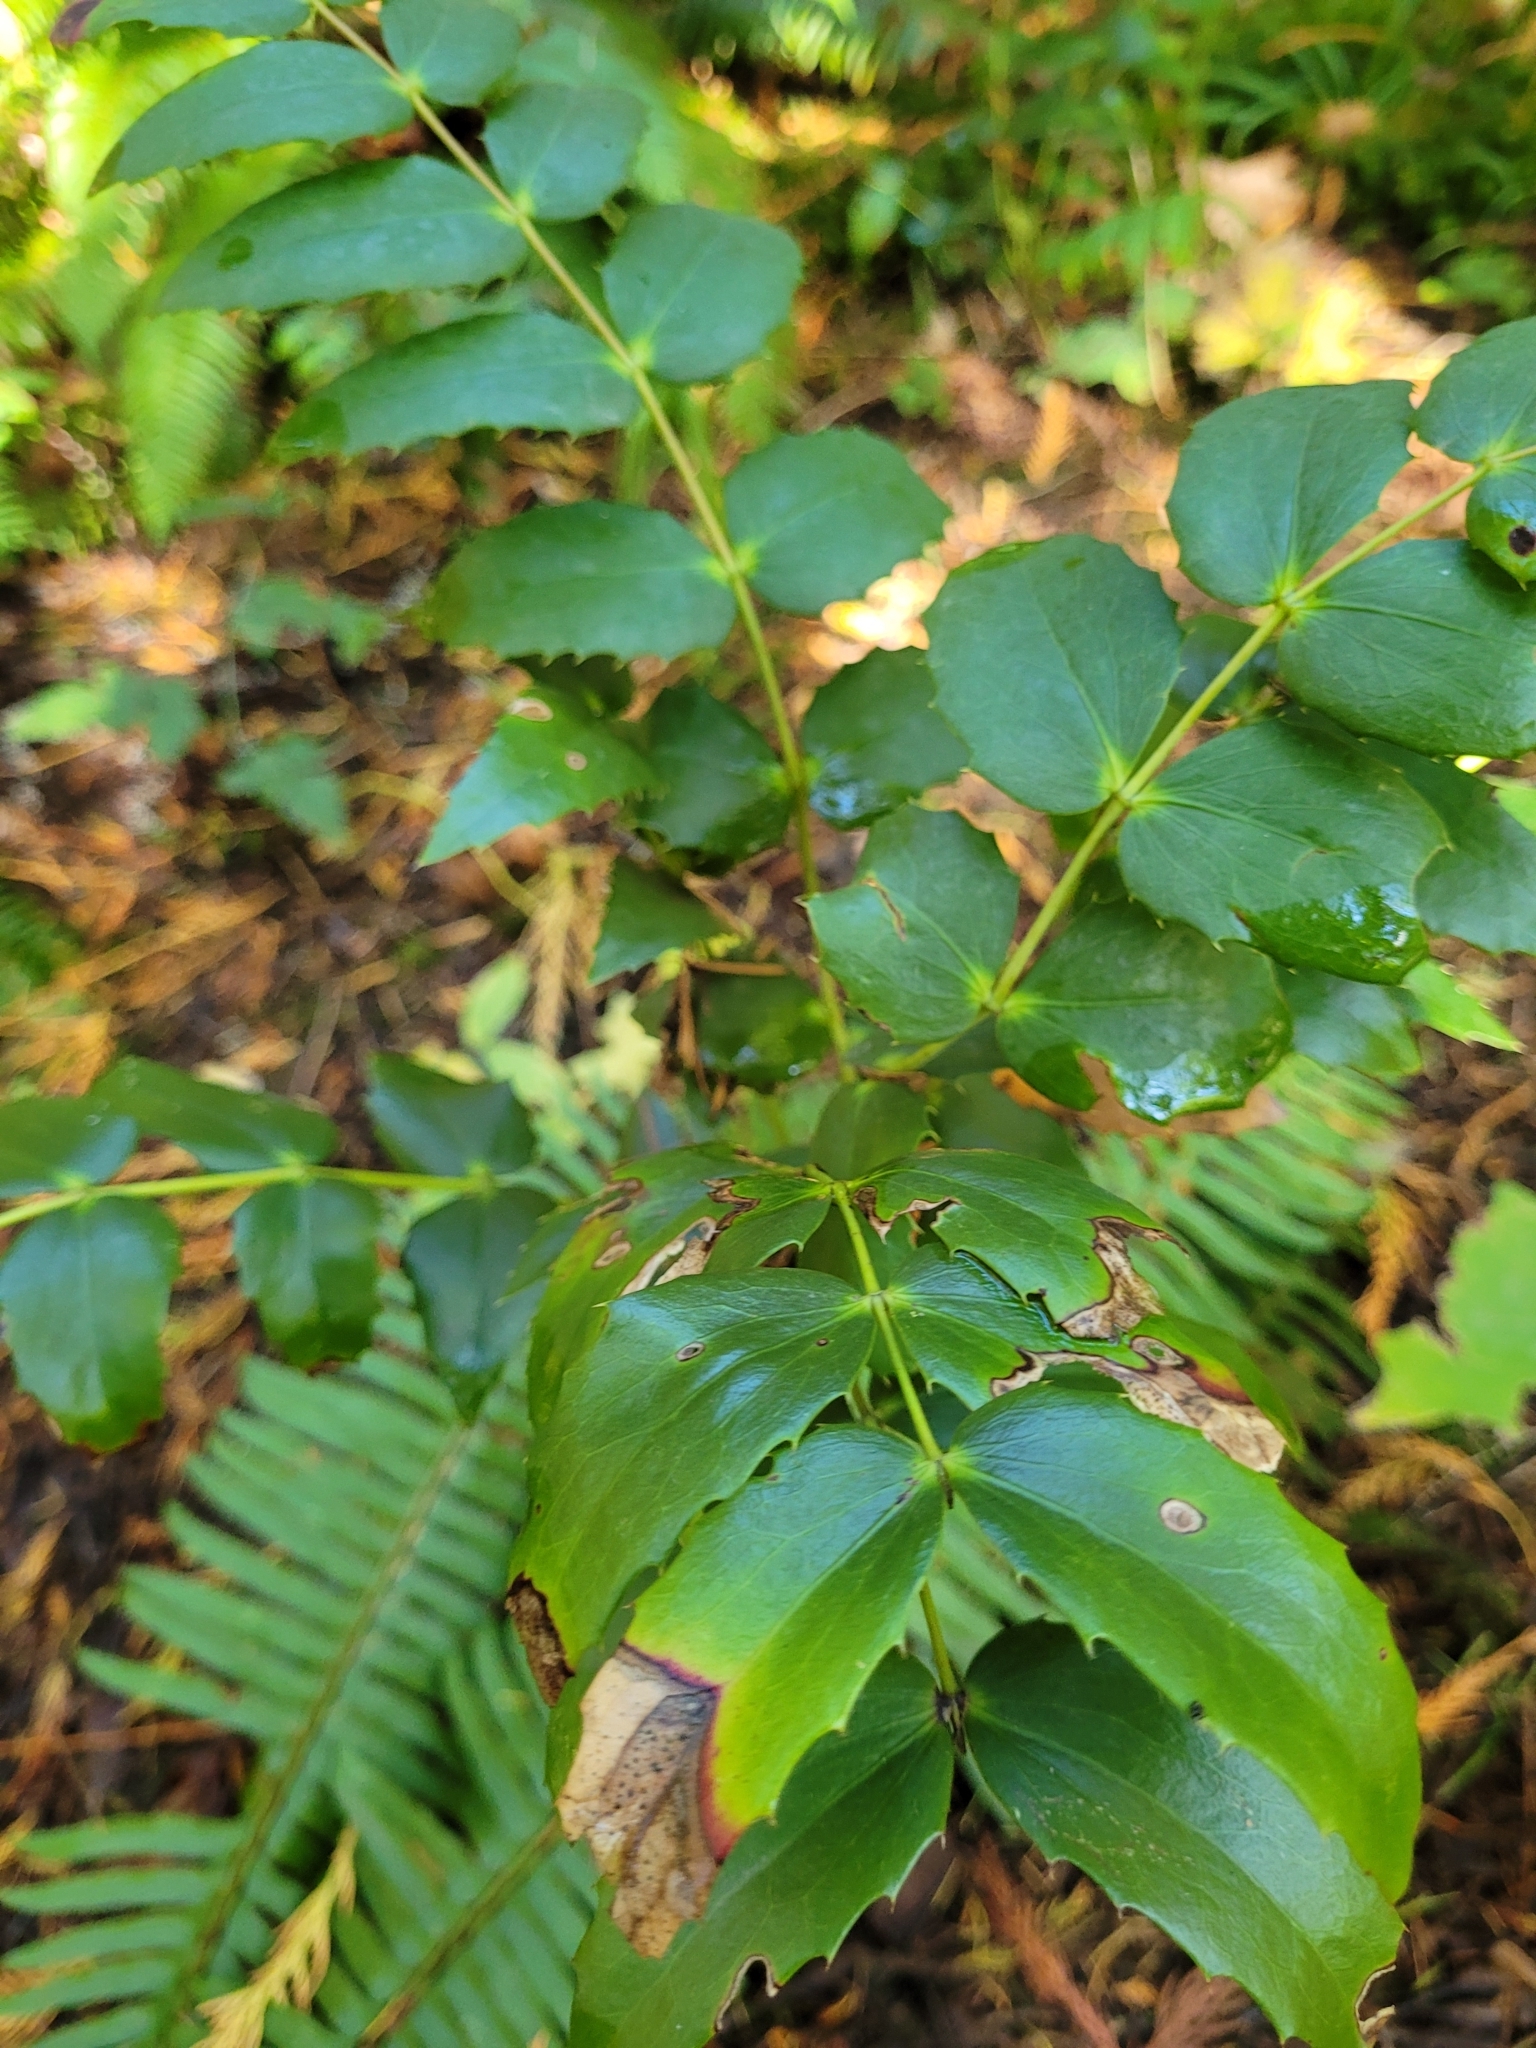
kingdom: Plantae
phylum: Tracheophyta
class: Magnoliopsida
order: Ranunculales
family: Berberidaceae
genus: Mahonia
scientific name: Mahonia nervosa
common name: Cascade oregon-grape
